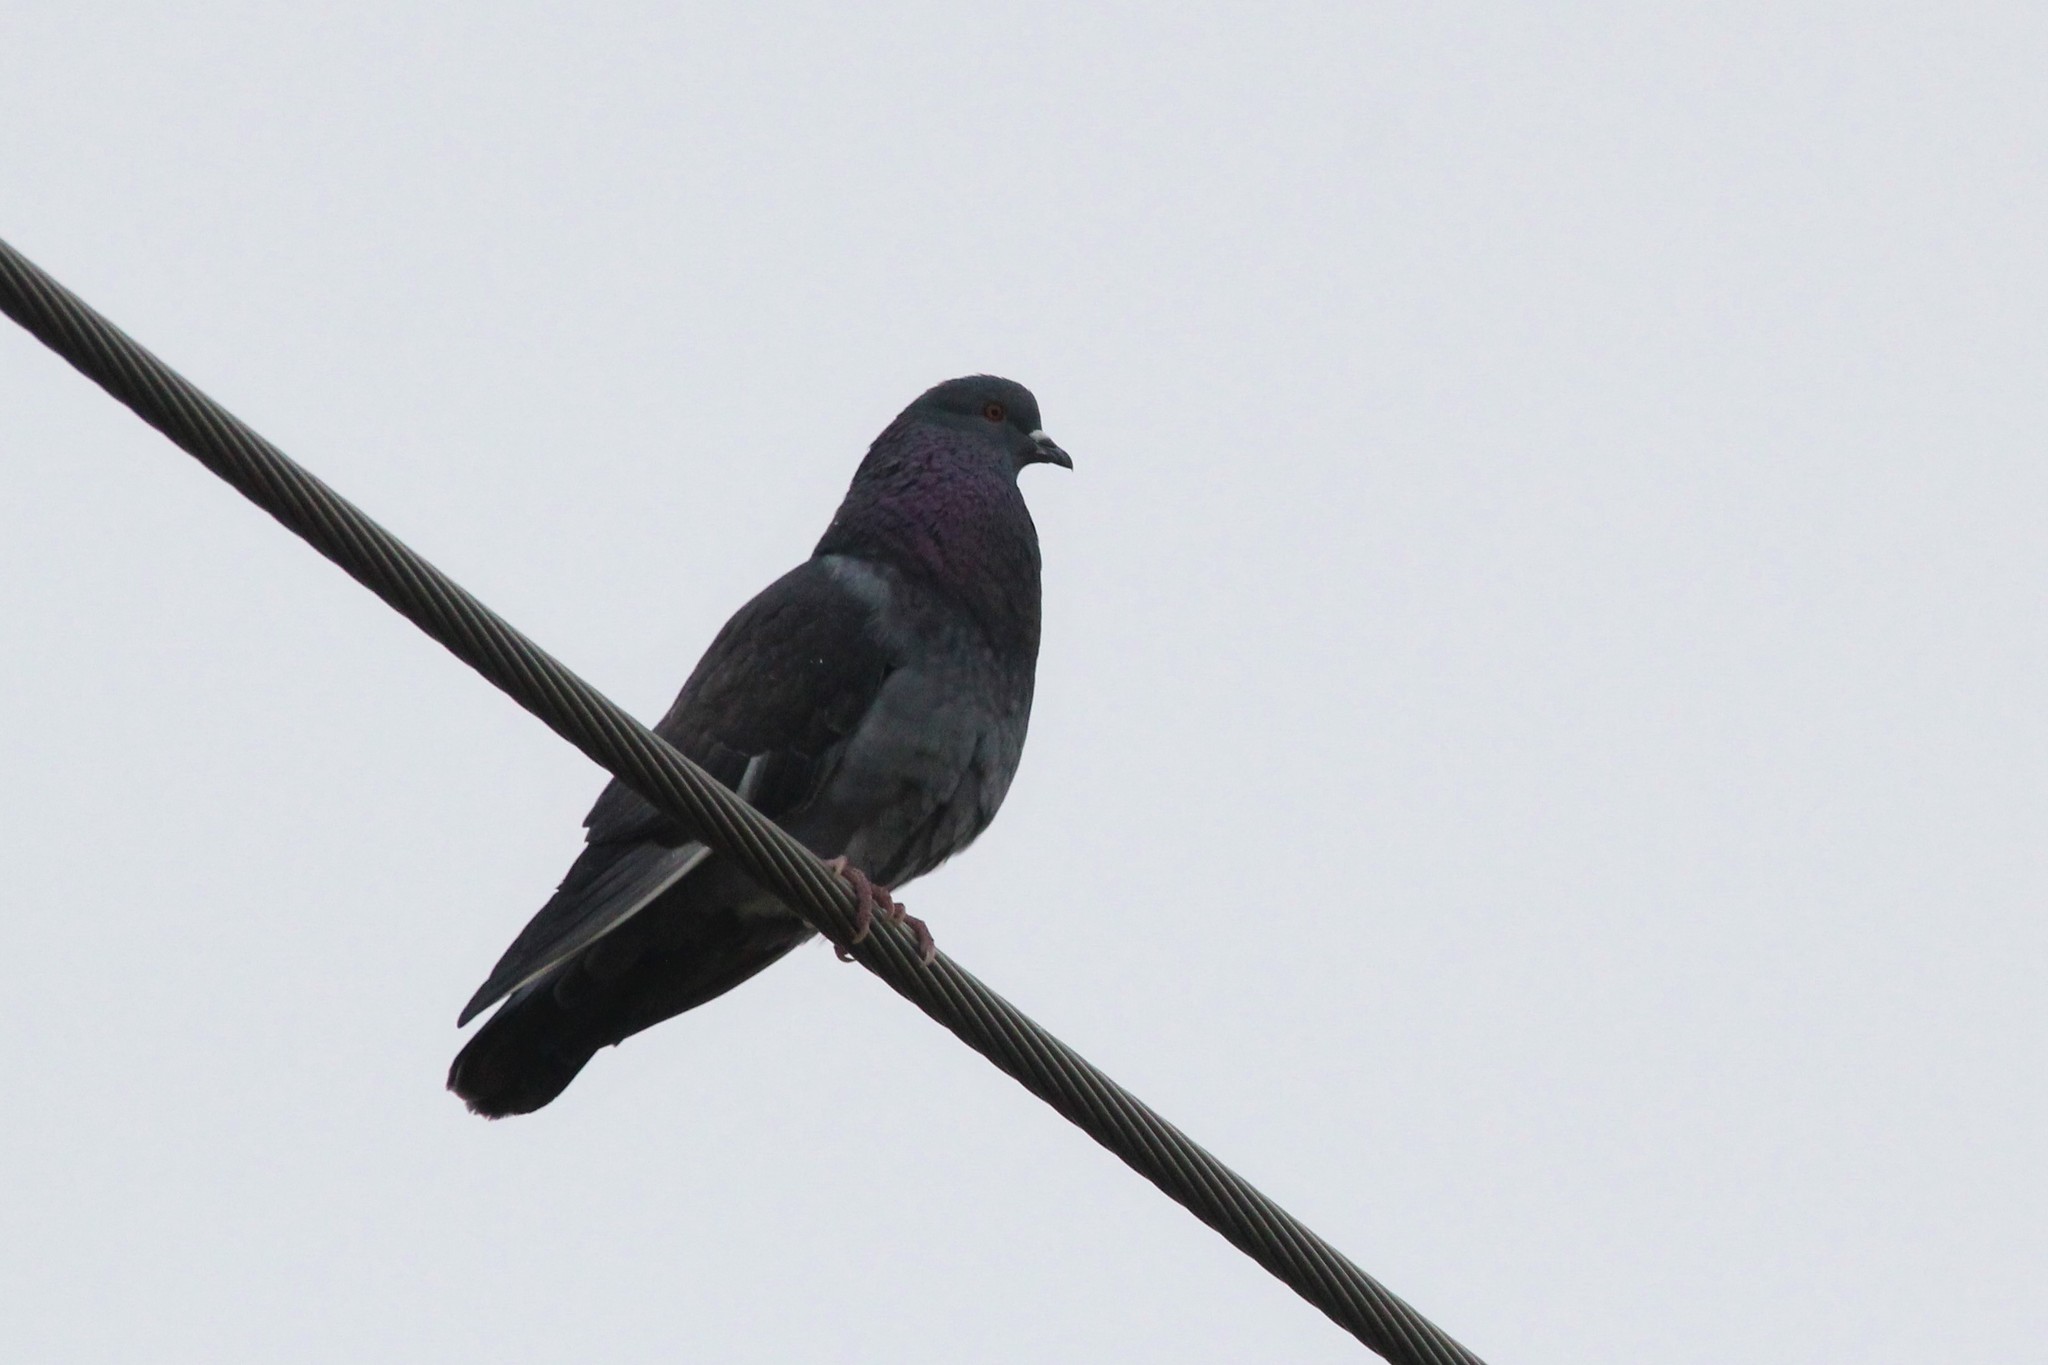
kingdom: Animalia
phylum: Chordata
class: Aves
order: Columbiformes
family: Columbidae
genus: Columba
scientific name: Columba livia
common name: Rock pigeon
